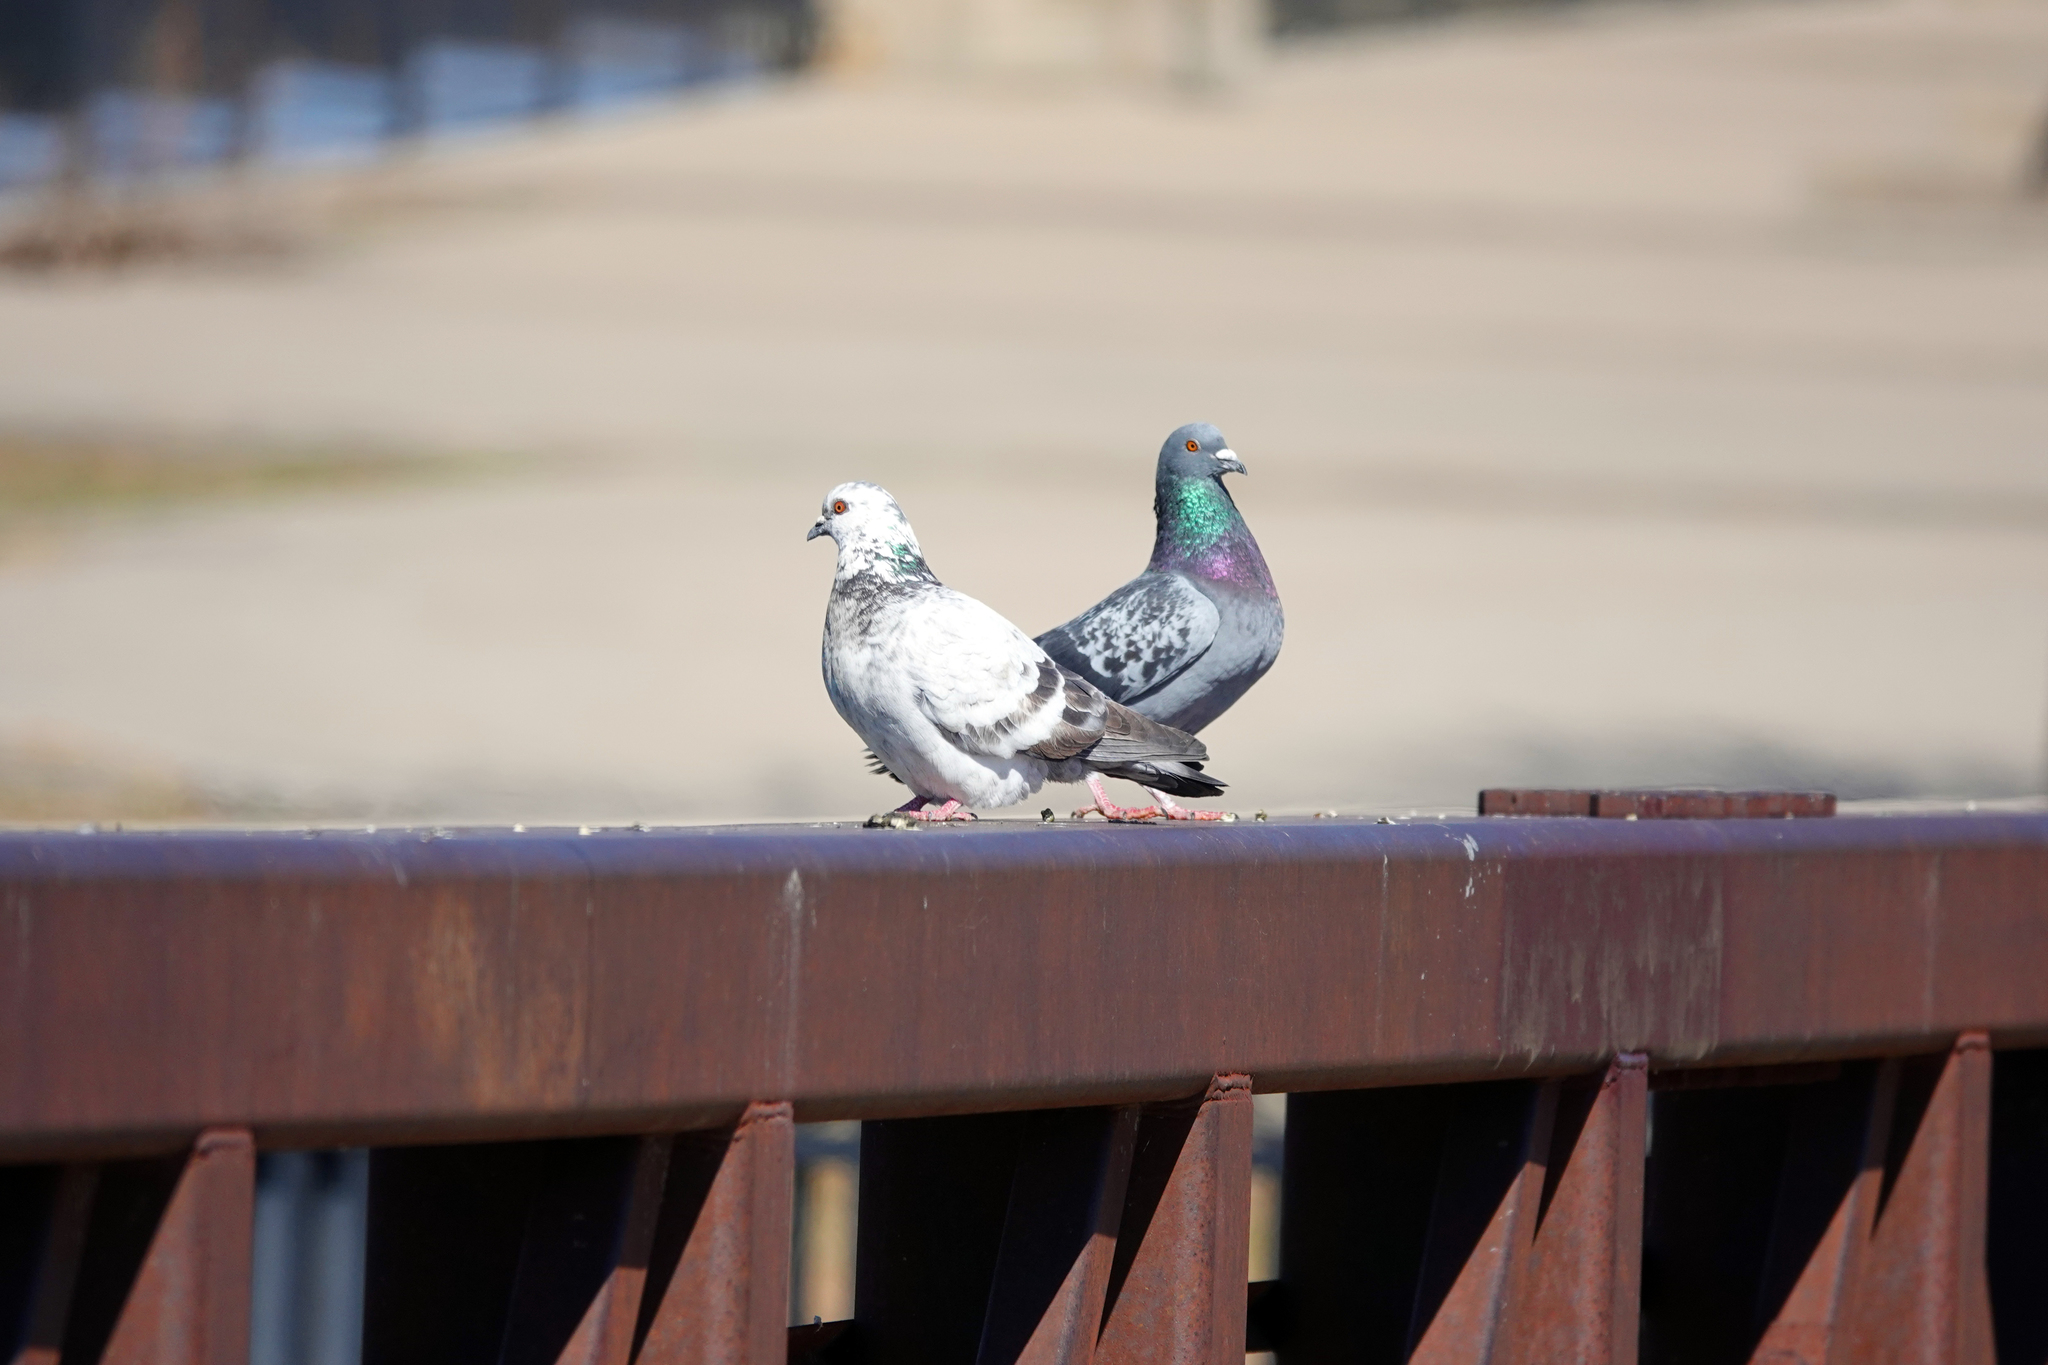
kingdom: Animalia
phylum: Chordata
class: Aves
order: Columbiformes
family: Columbidae
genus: Columba
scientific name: Columba livia
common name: Rock pigeon
